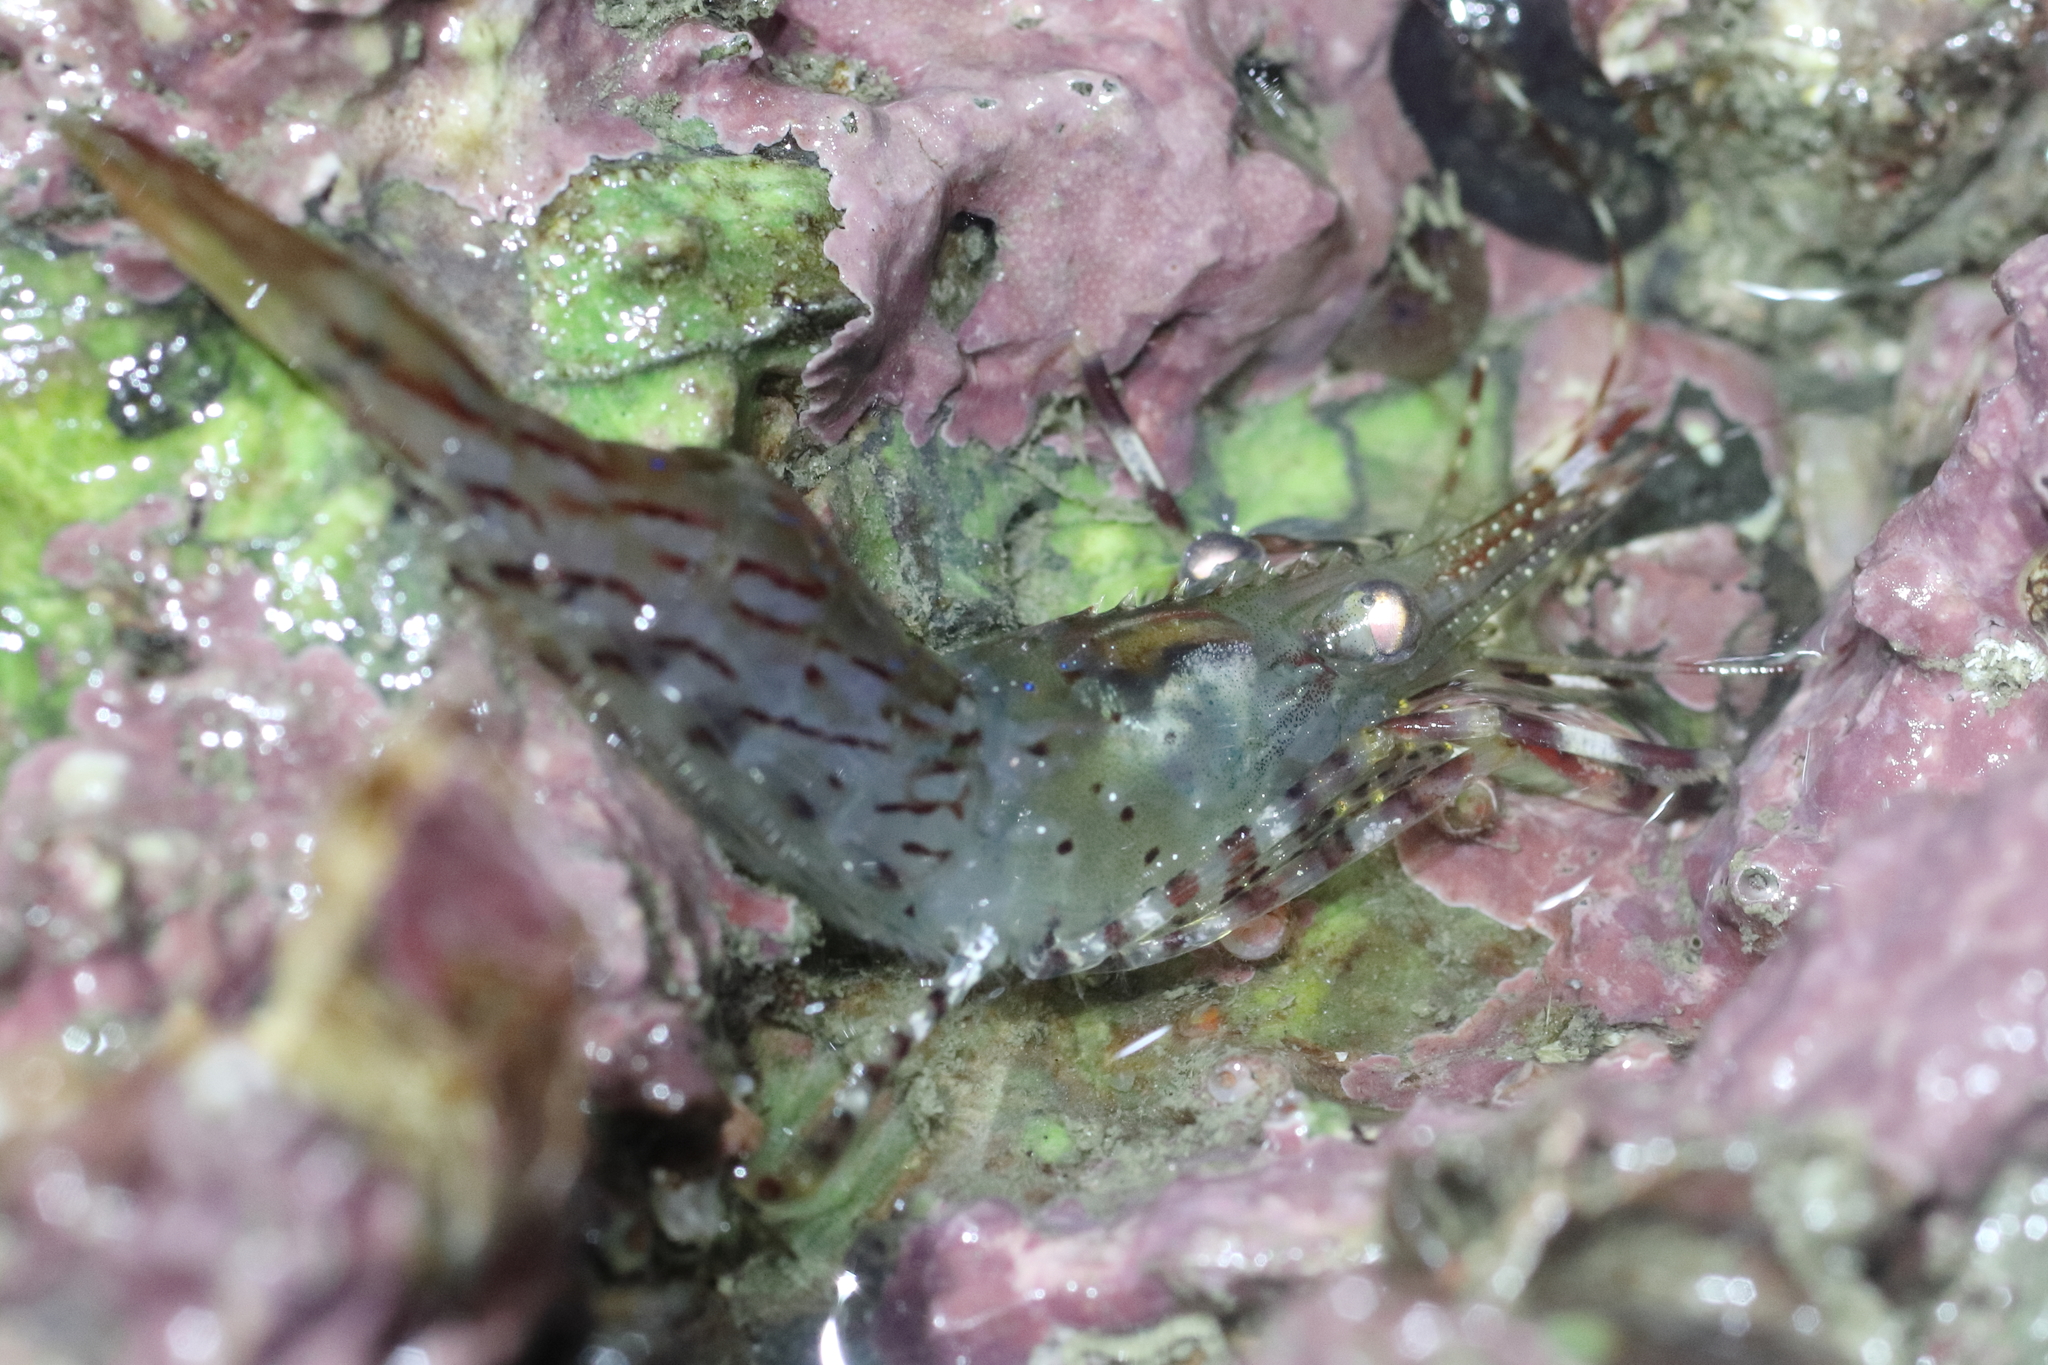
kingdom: Animalia
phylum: Arthropoda
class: Malacostraca
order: Decapoda
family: Pandalidae
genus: Pandalus
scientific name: Pandalus danae
